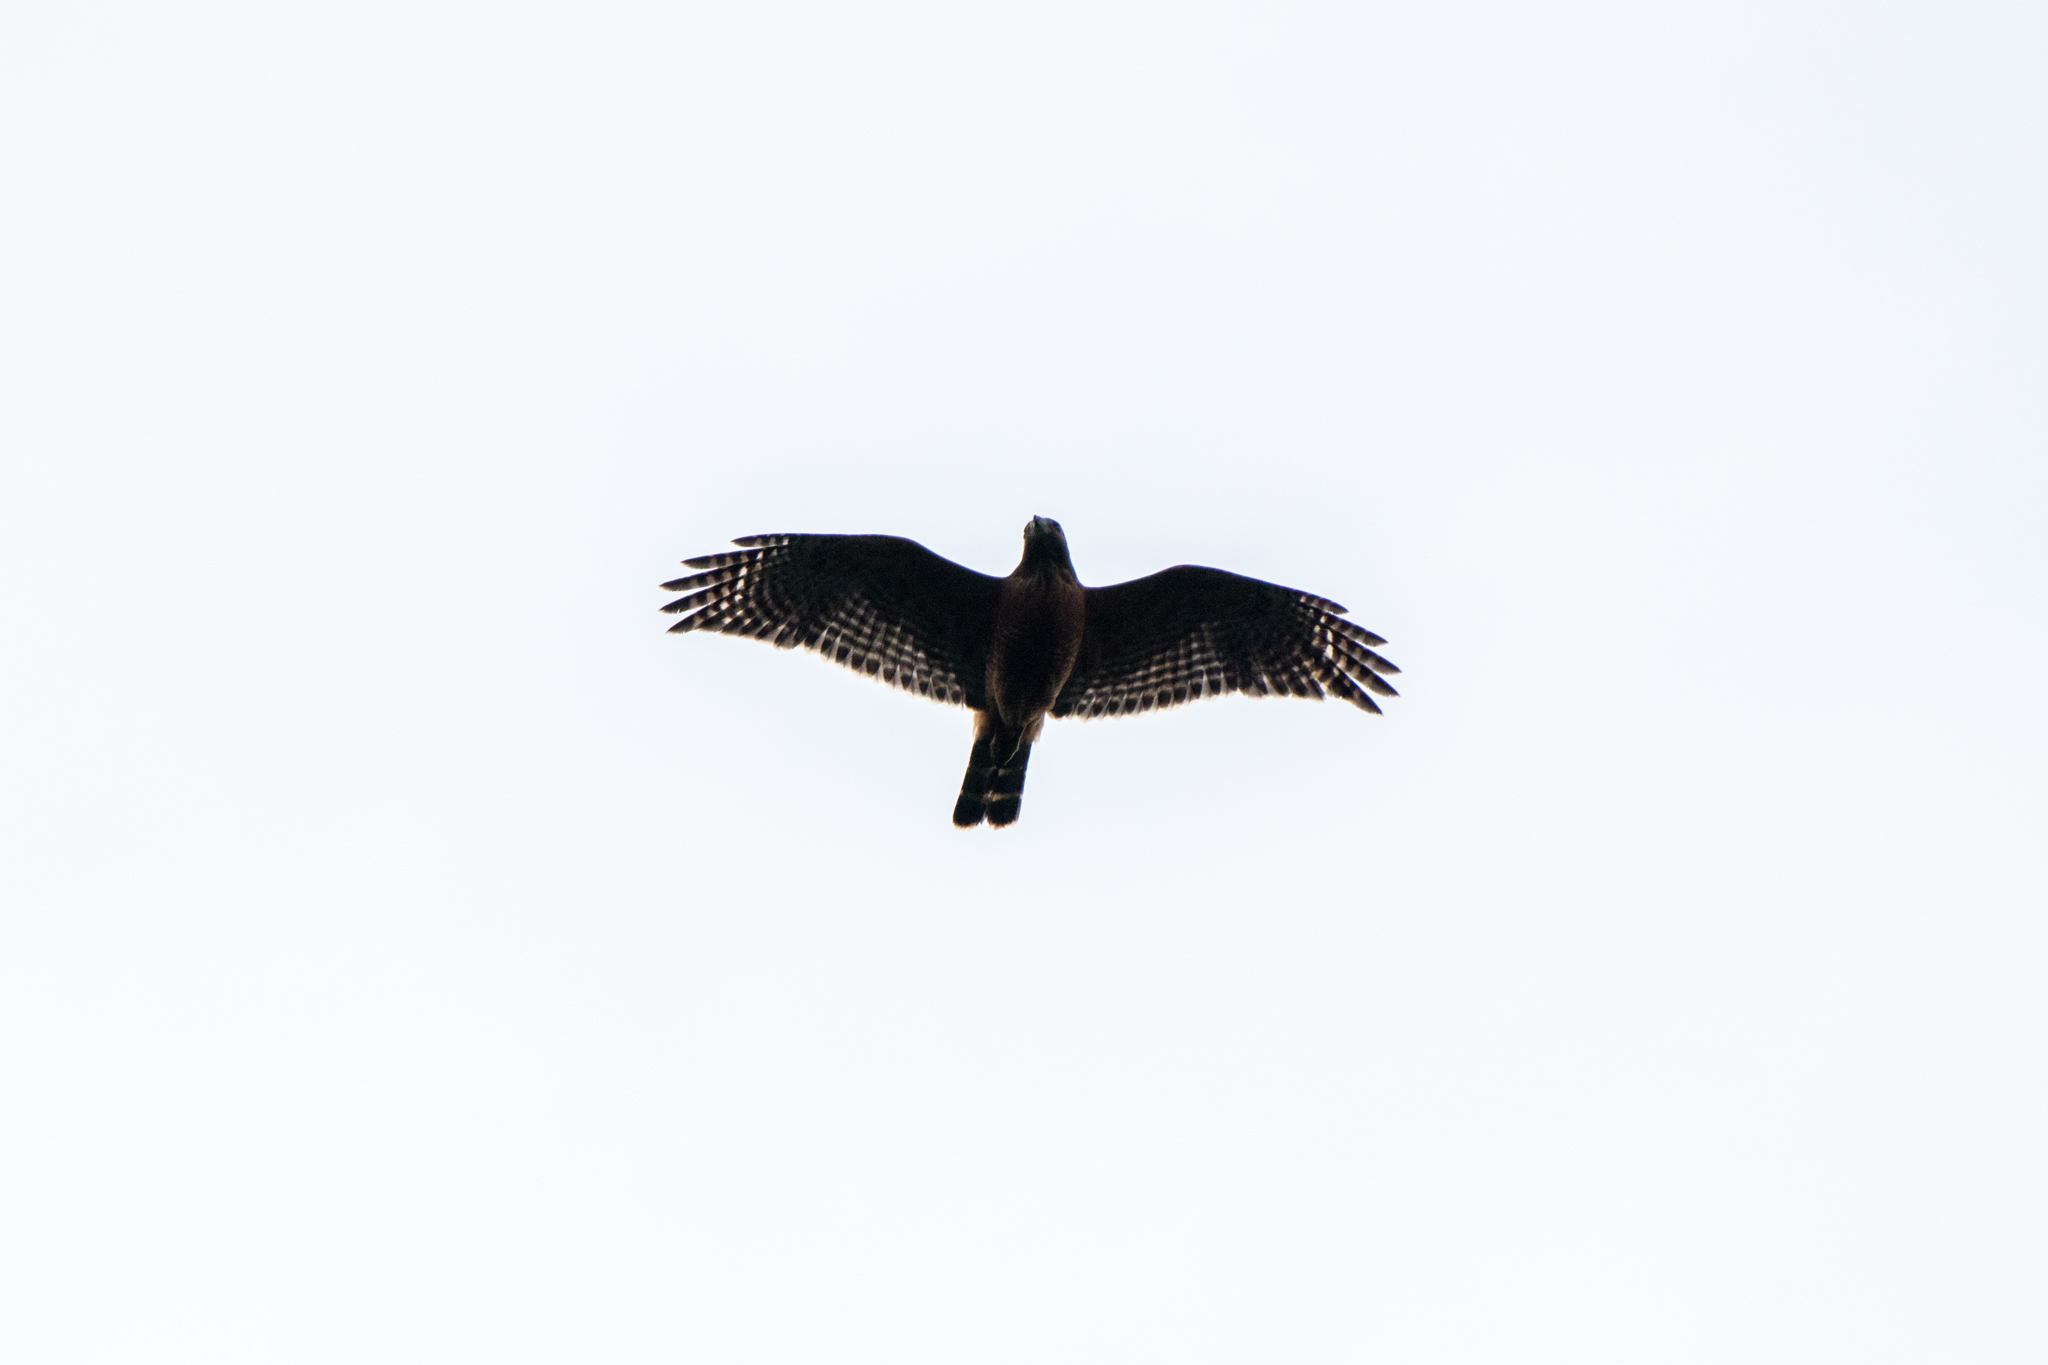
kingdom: Animalia
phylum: Chordata
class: Aves
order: Accipitriformes
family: Accipitridae
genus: Buteo
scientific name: Buteo lineatus
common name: Red-shouldered hawk
